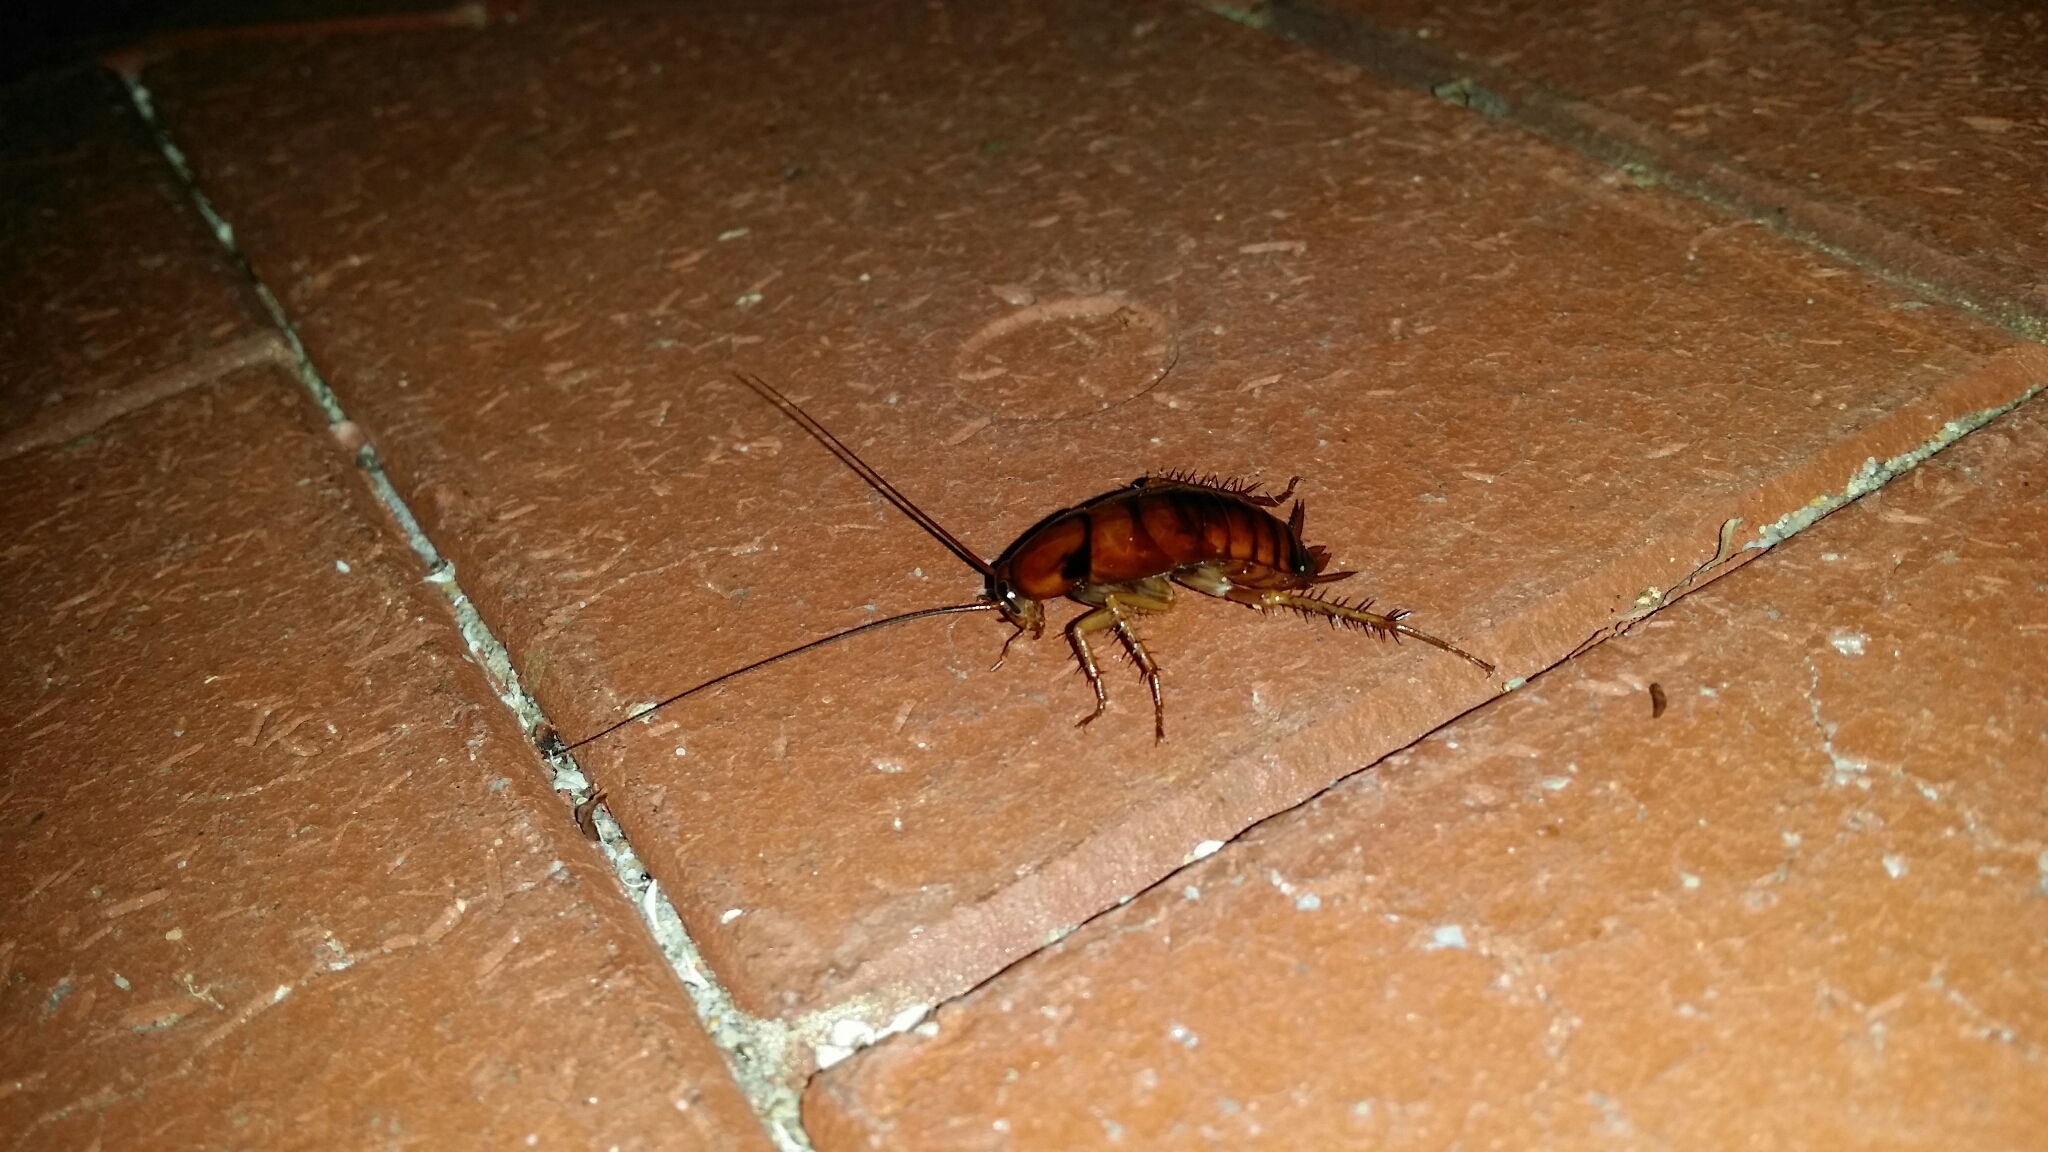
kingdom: Animalia
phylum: Arthropoda
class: Insecta
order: Blattodea
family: Blattidae
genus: Periplaneta
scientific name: Periplaneta americana
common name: American cockroach
